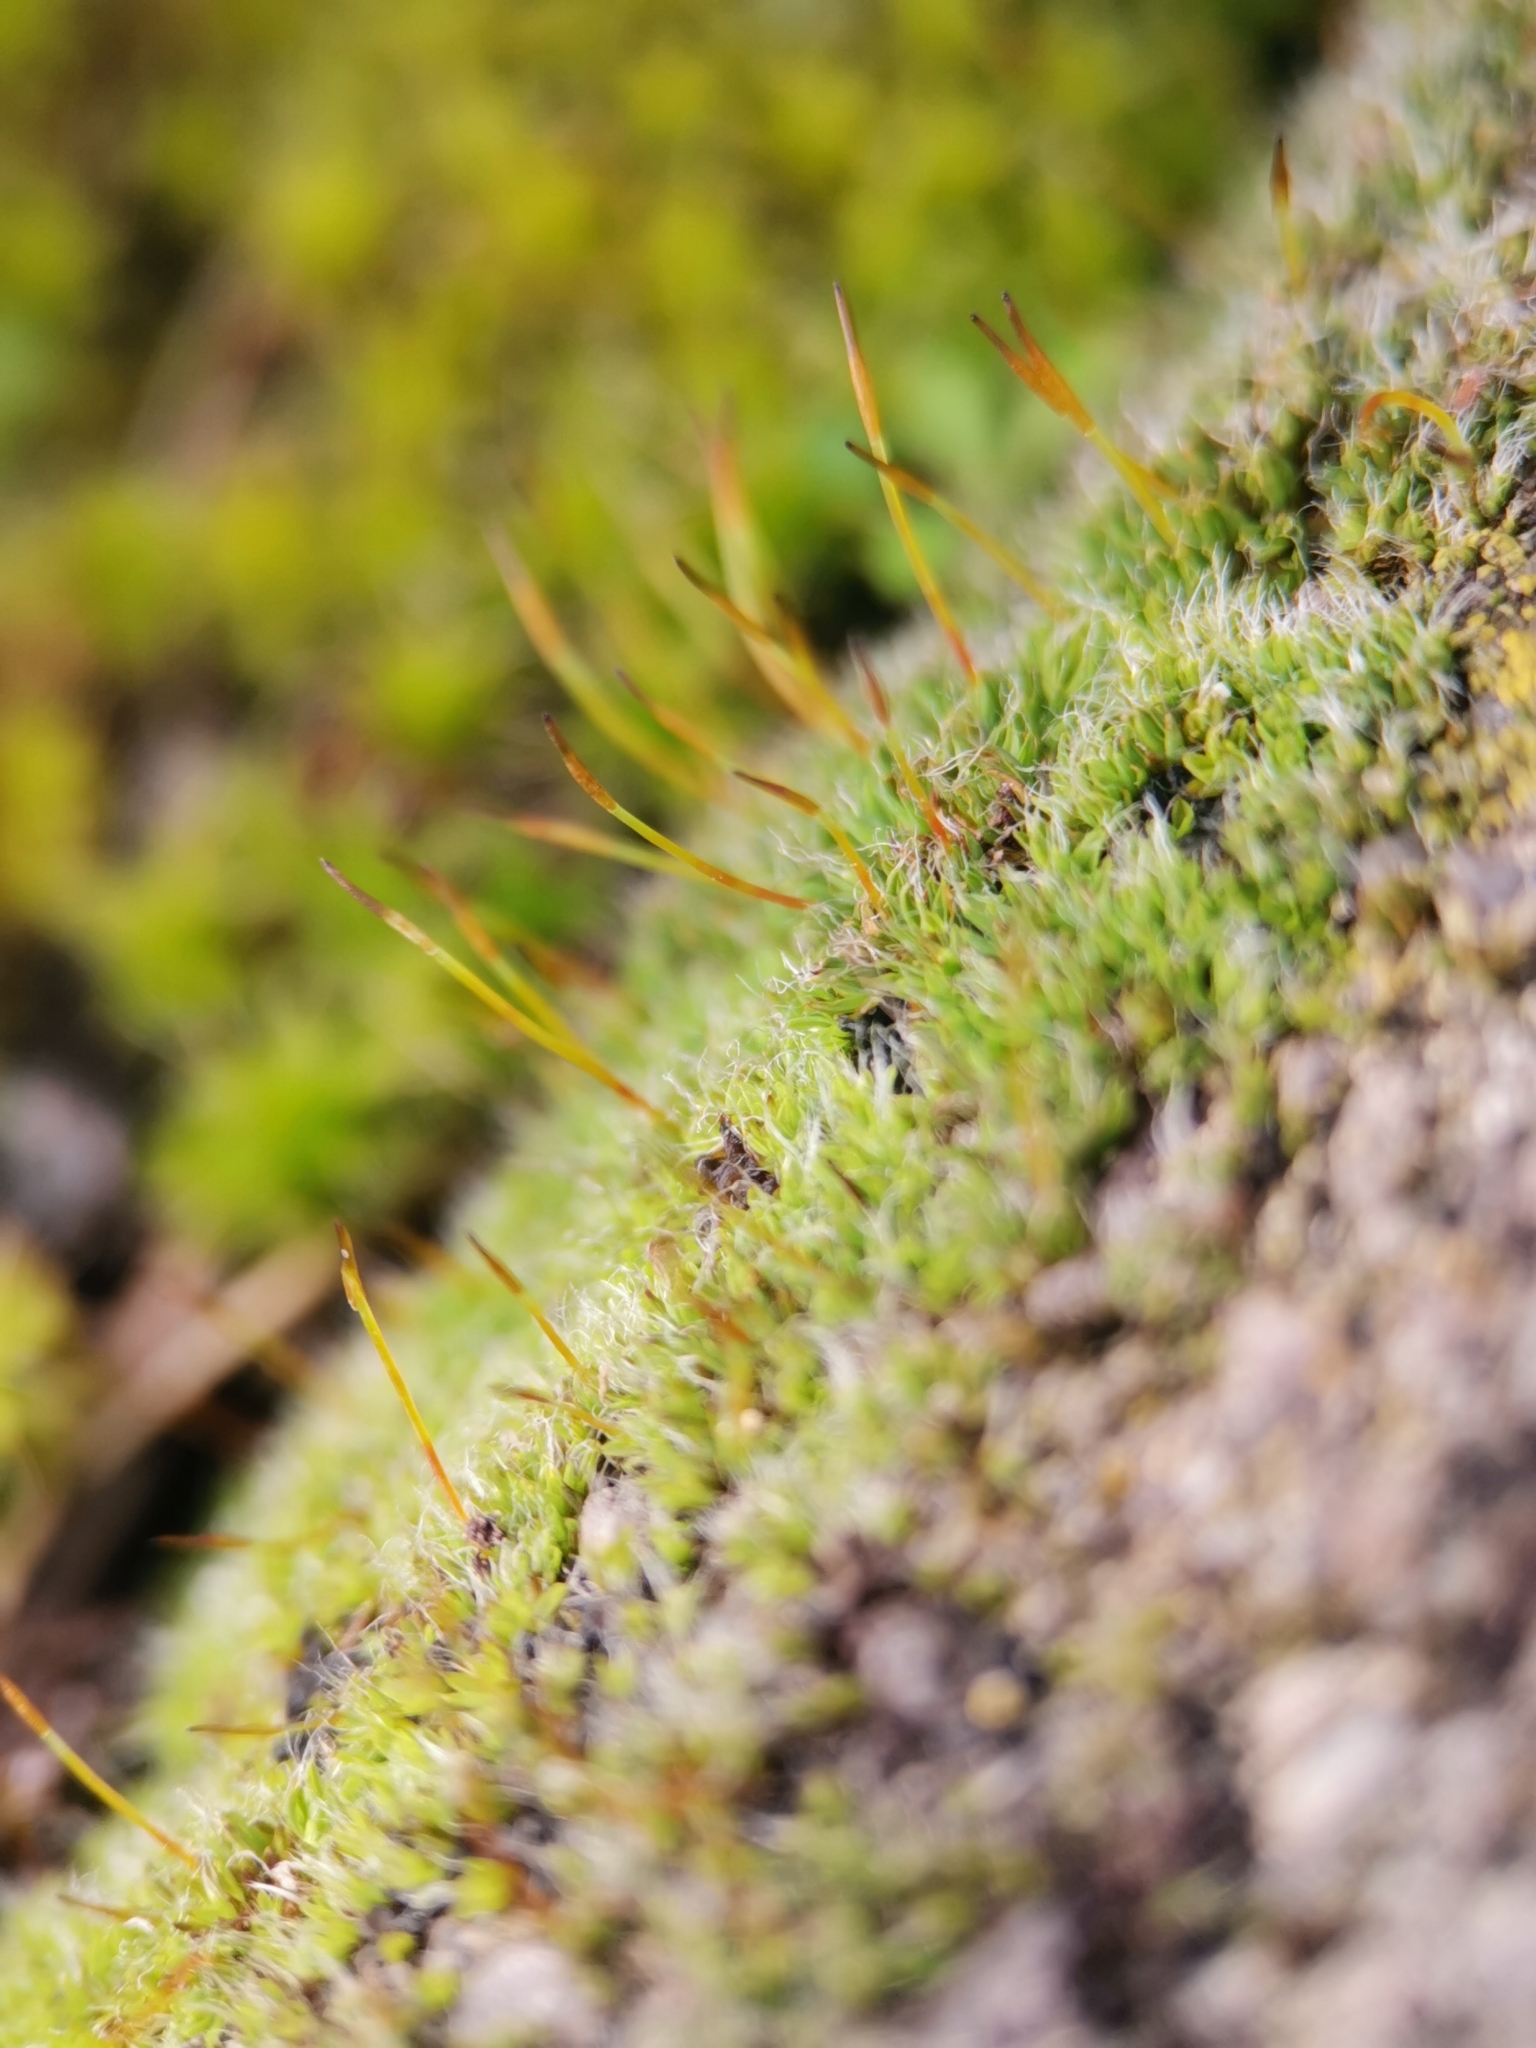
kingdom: Plantae
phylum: Bryophyta
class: Bryopsida
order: Pottiales
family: Pottiaceae
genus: Tortula
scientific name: Tortula muralis
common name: Wall screw-moss
